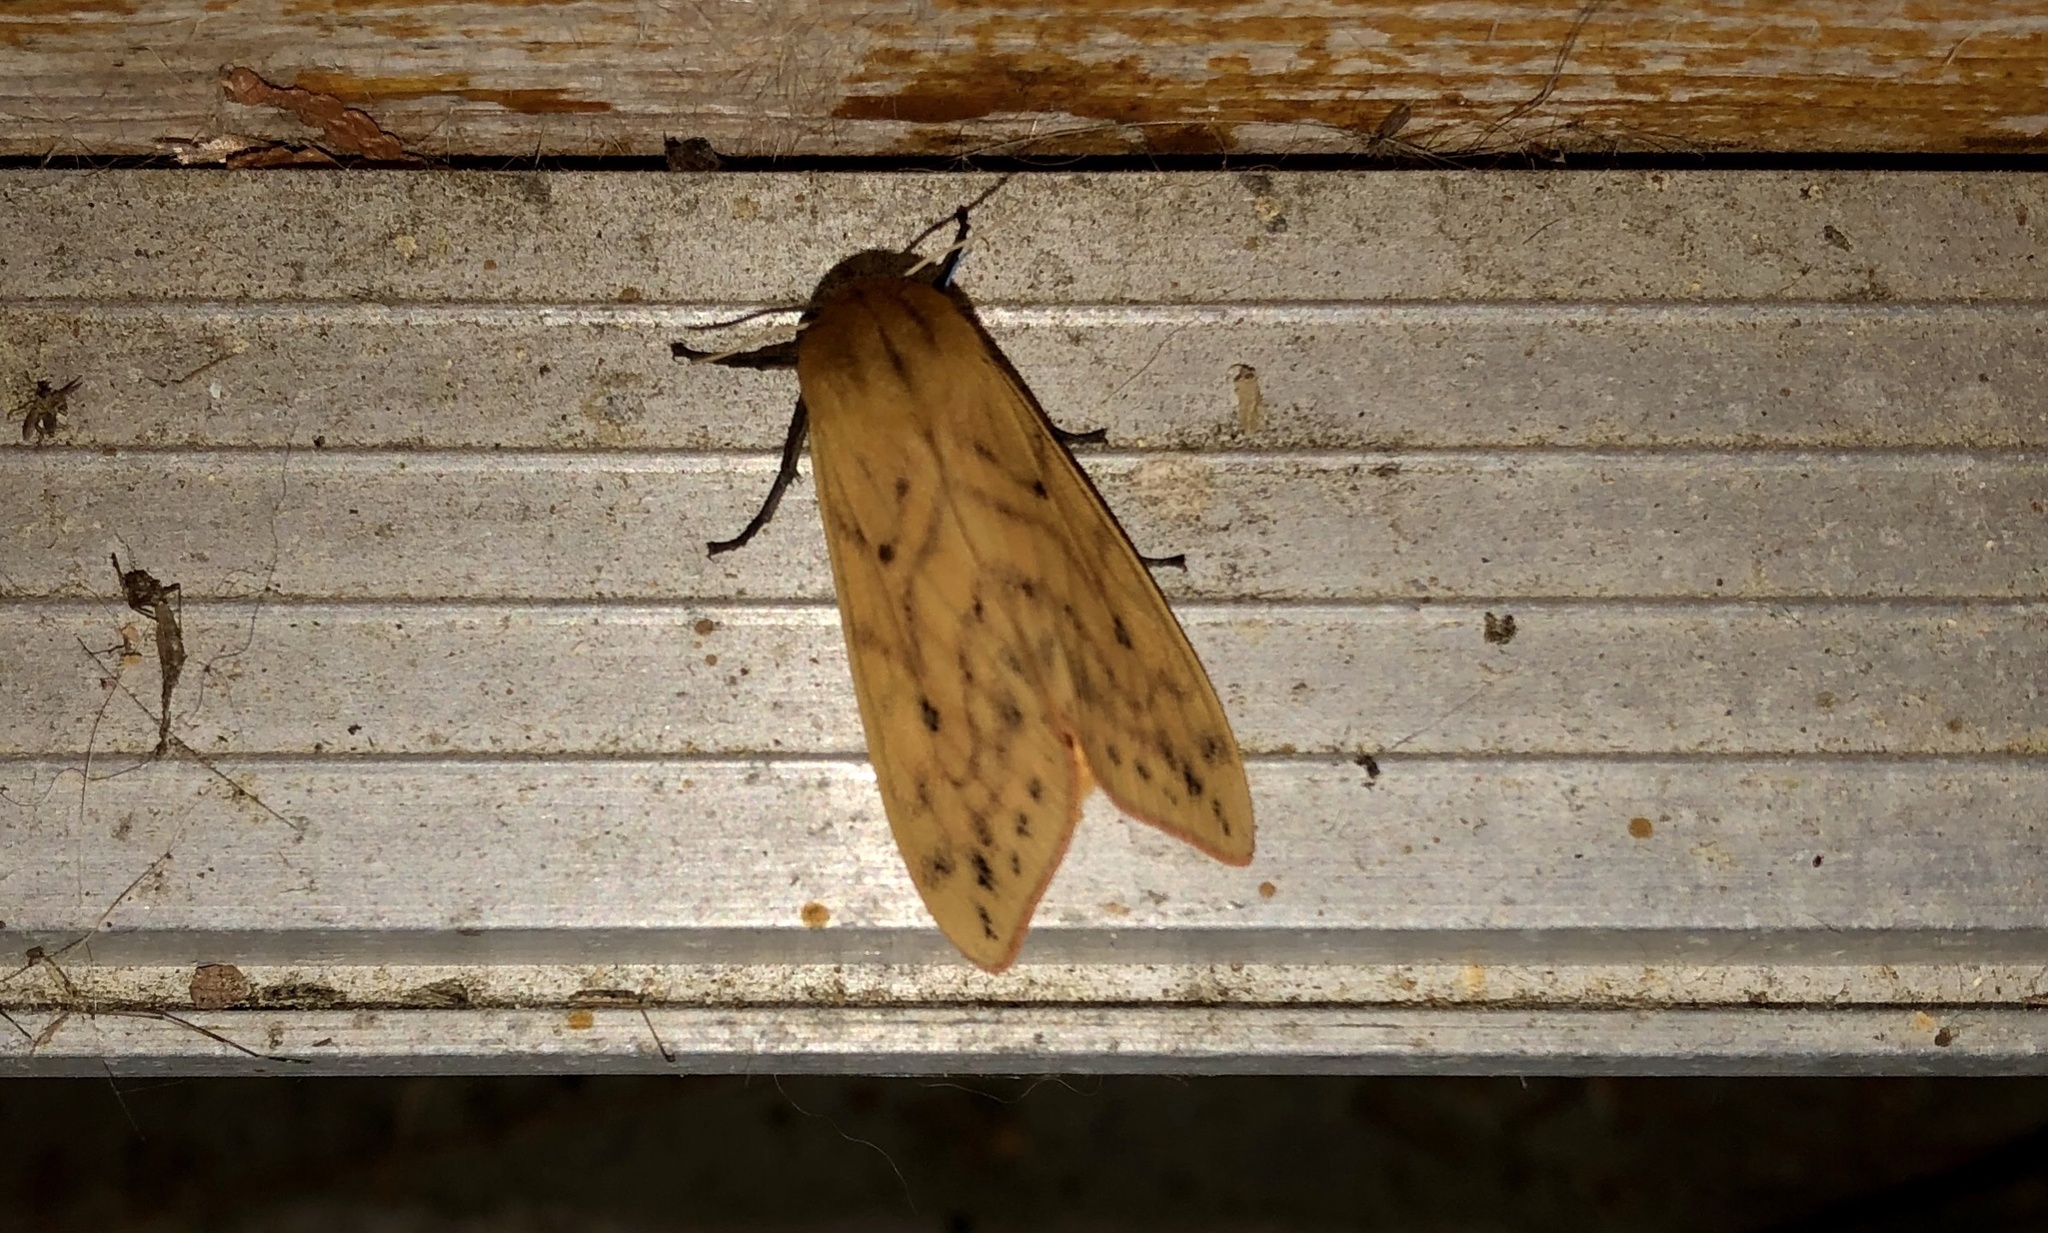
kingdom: Animalia
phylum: Arthropoda
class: Insecta
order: Lepidoptera
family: Erebidae
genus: Pyrrharctia
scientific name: Pyrrharctia isabella
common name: Isabella tiger moth
